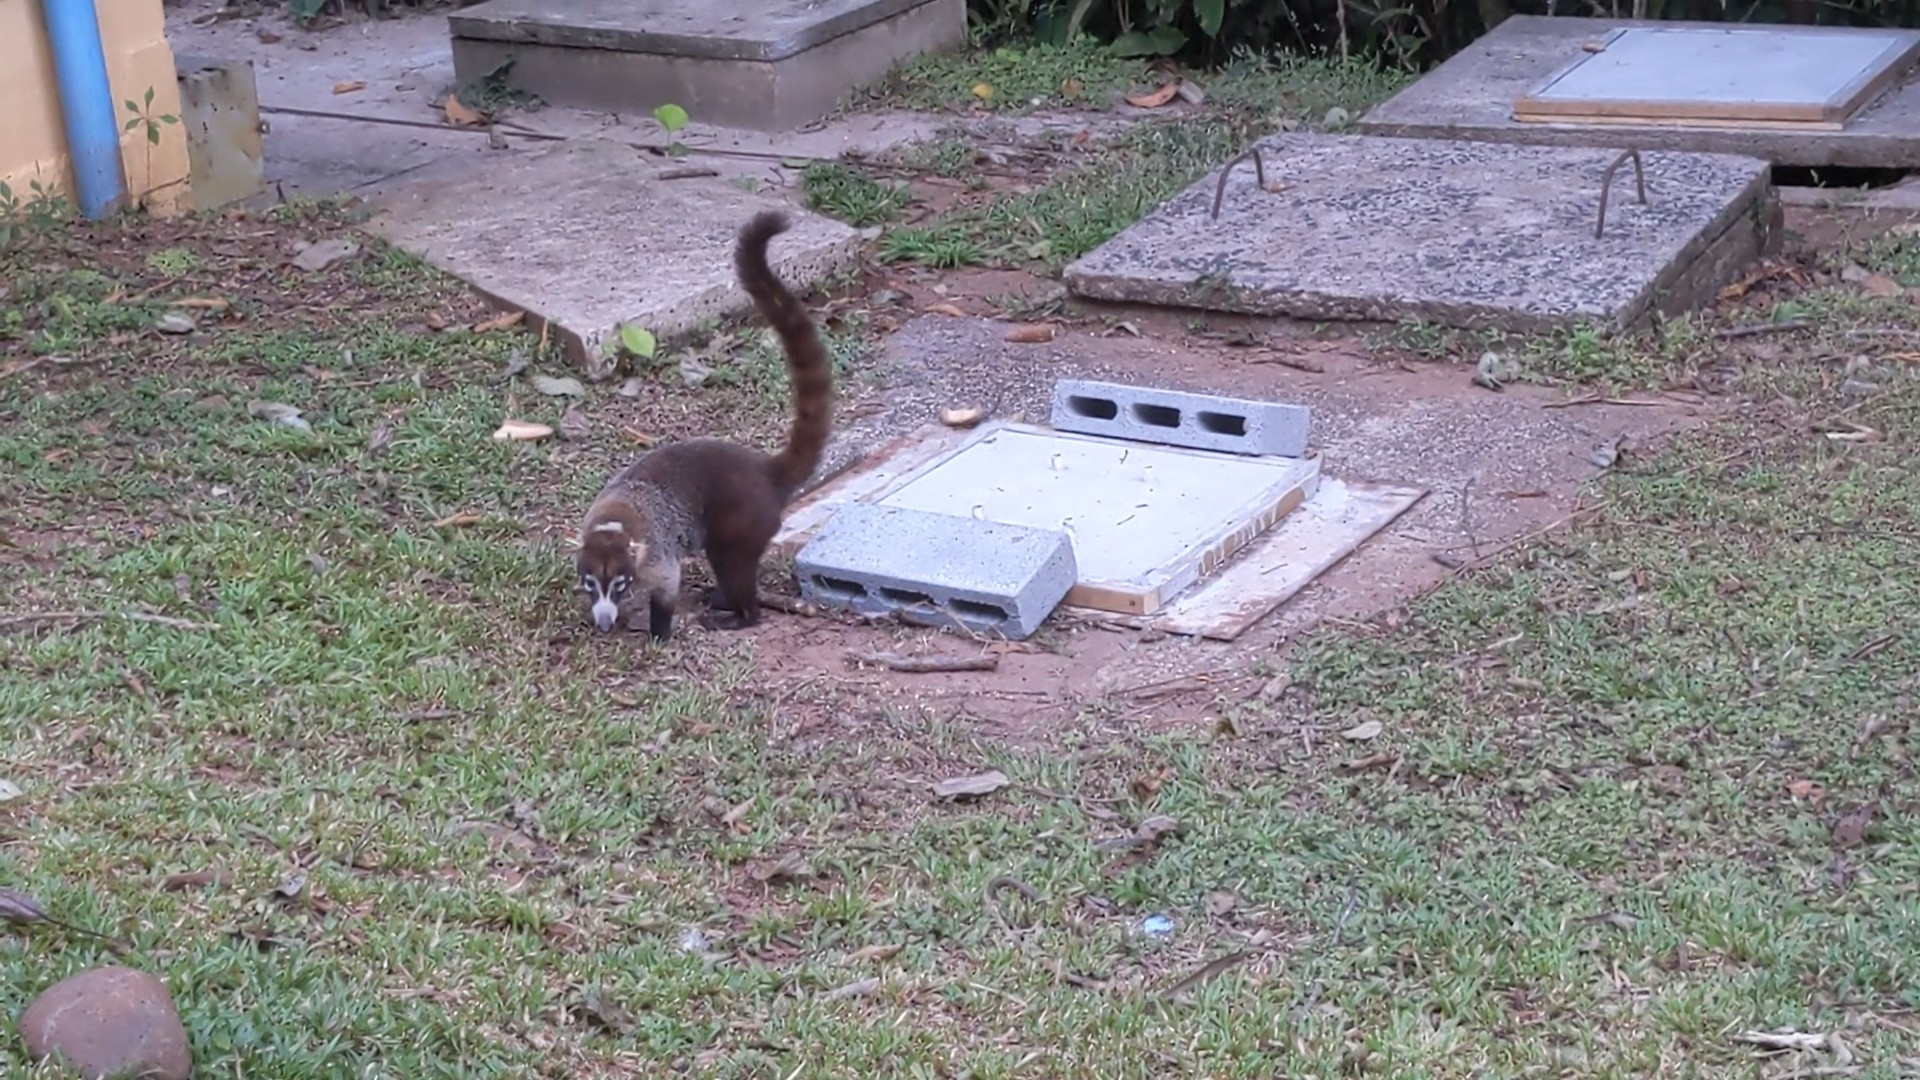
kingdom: Animalia
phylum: Chordata
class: Mammalia
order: Carnivora
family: Procyonidae
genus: Nasua
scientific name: Nasua narica
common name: White-nosed coati
